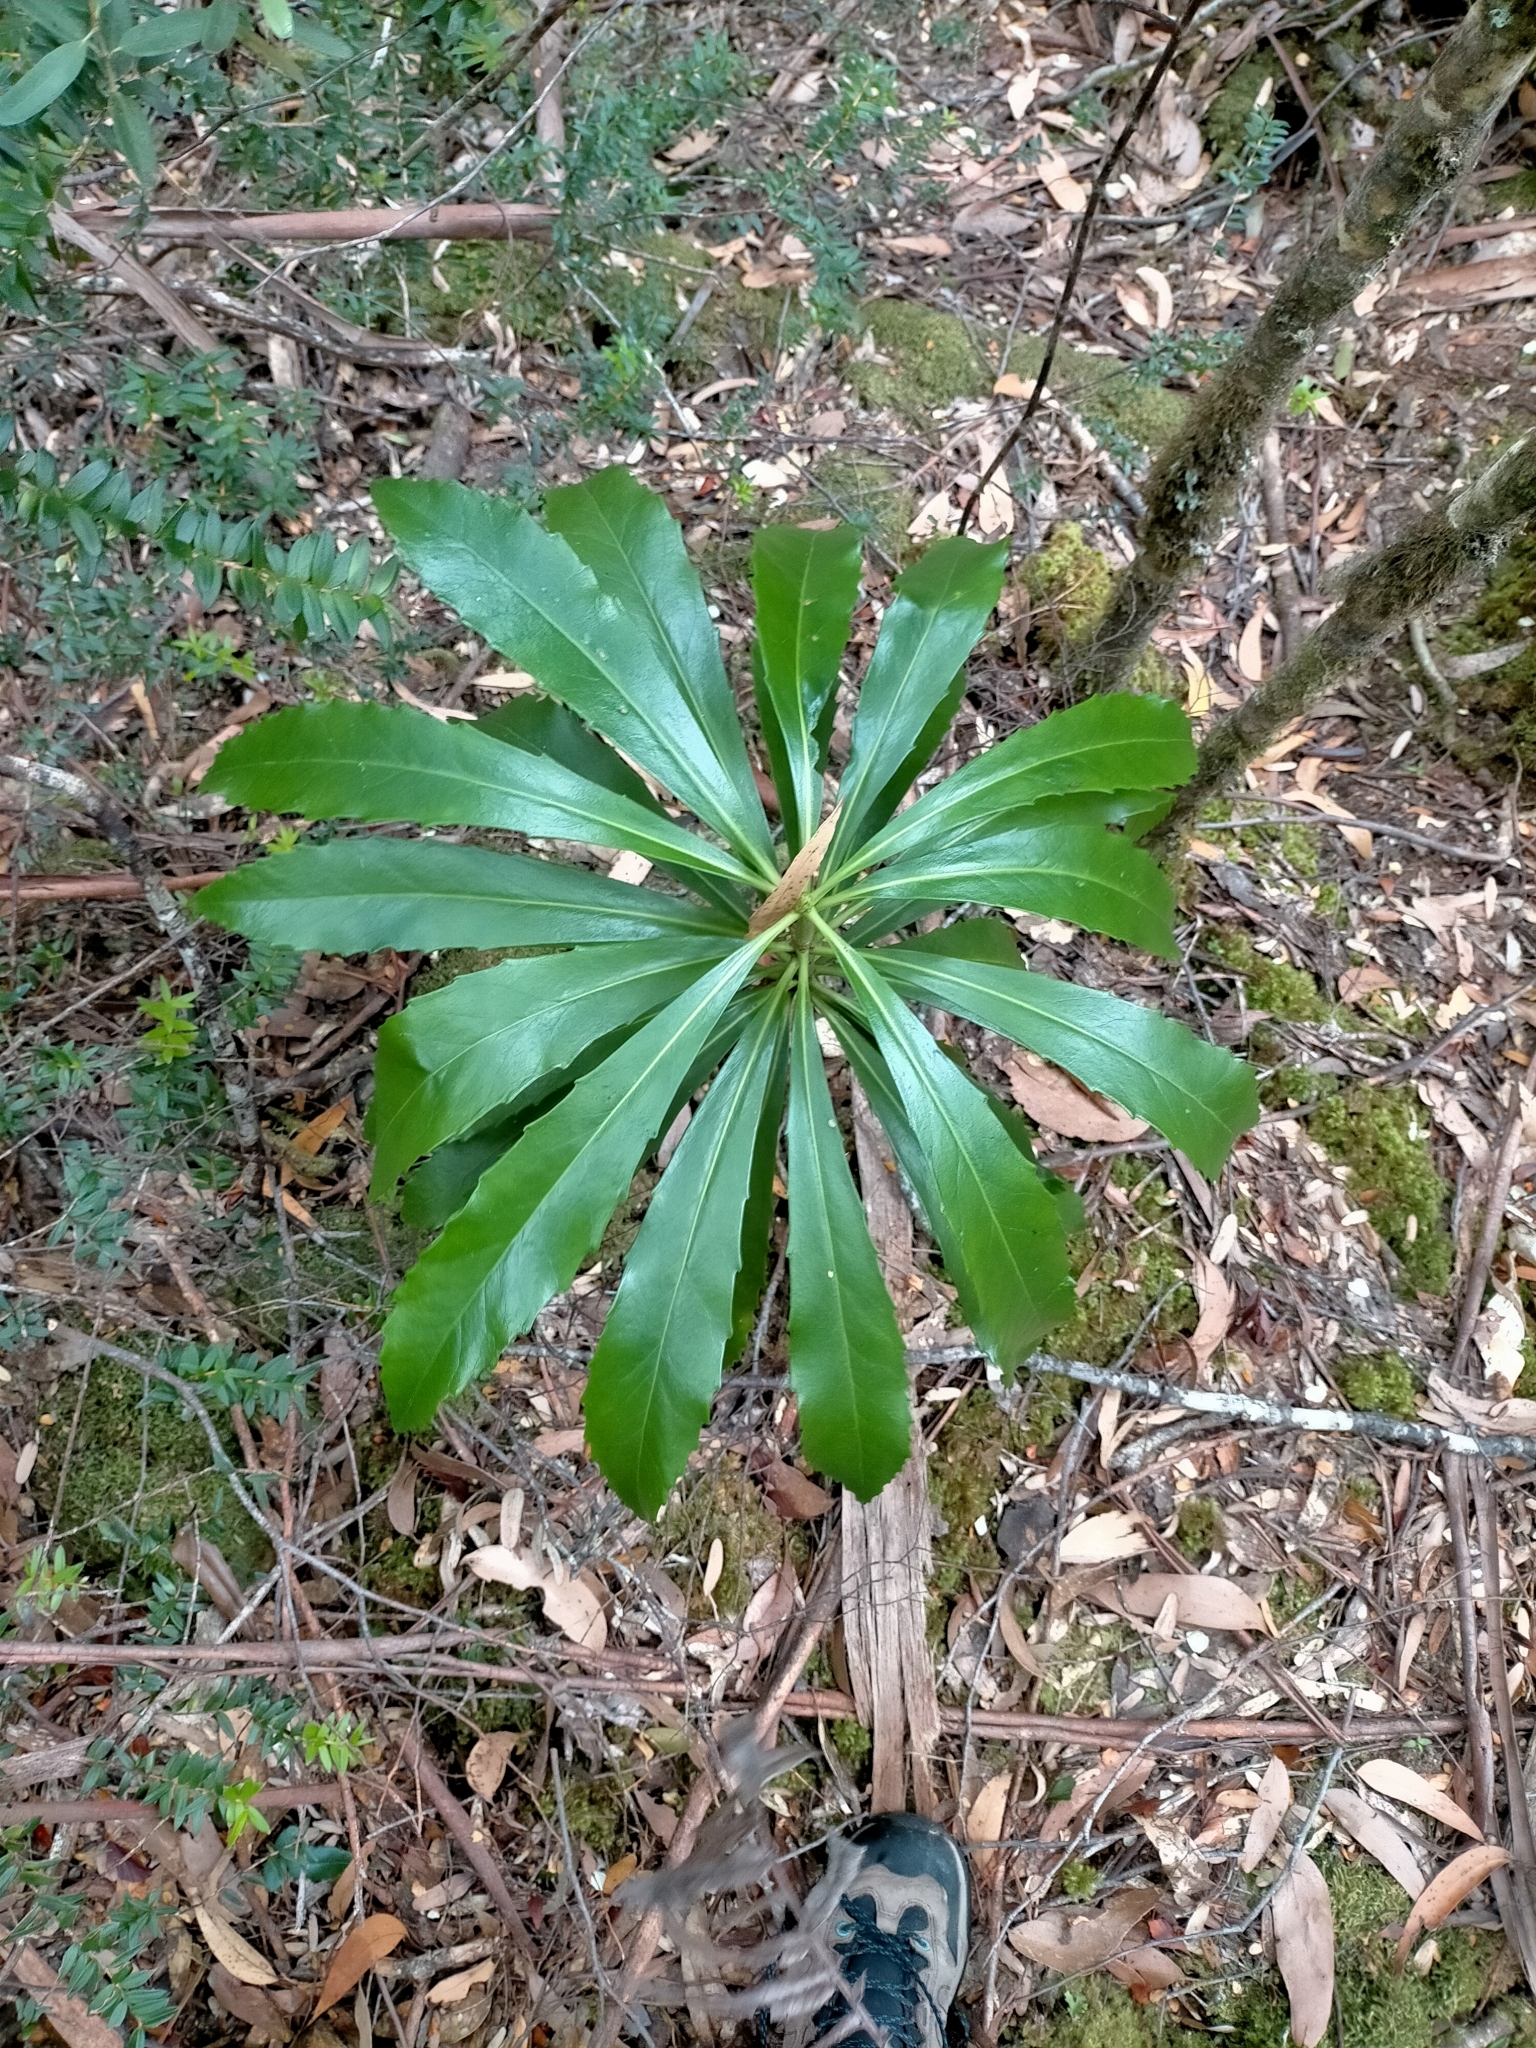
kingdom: Plantae
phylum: Tracheophyta
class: Magnoliopsida
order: Escalloniales
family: Escalloniaceae
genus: Anopterus
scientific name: Anopterus glandulosus
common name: Tasmanian-laurel
